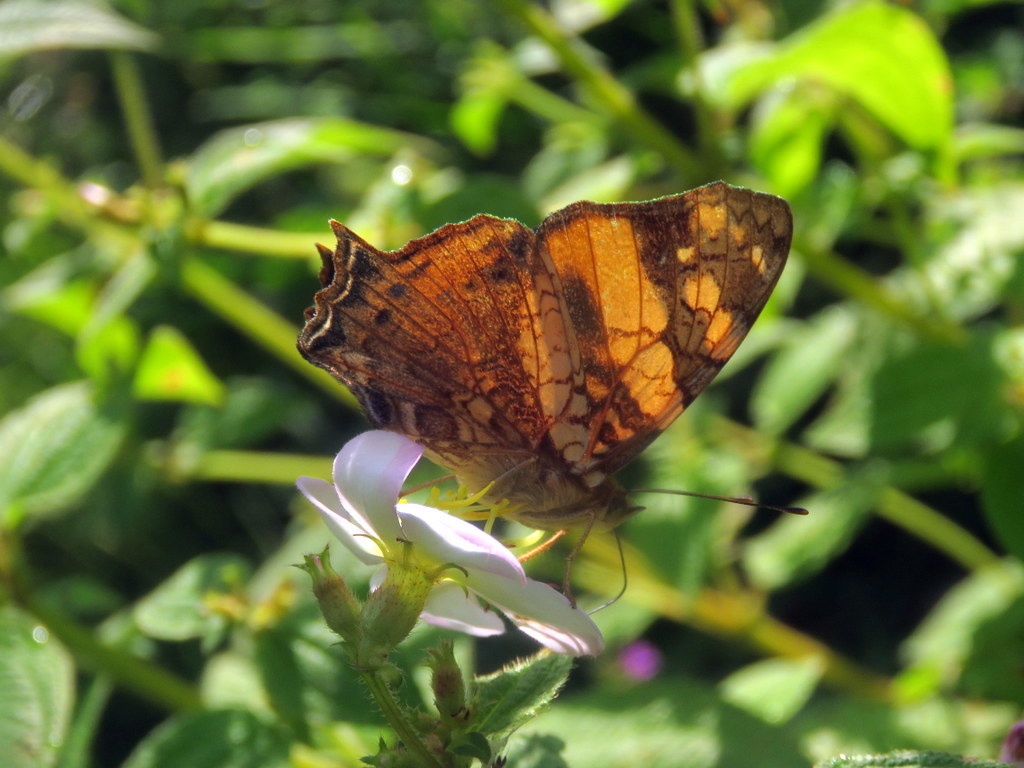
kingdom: Animalia
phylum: Arthropoda
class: Insecta
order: Lepidoptera
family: Nymphalidae
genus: Hypanartia
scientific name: Hypanartia lethe
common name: Orange mapwing
